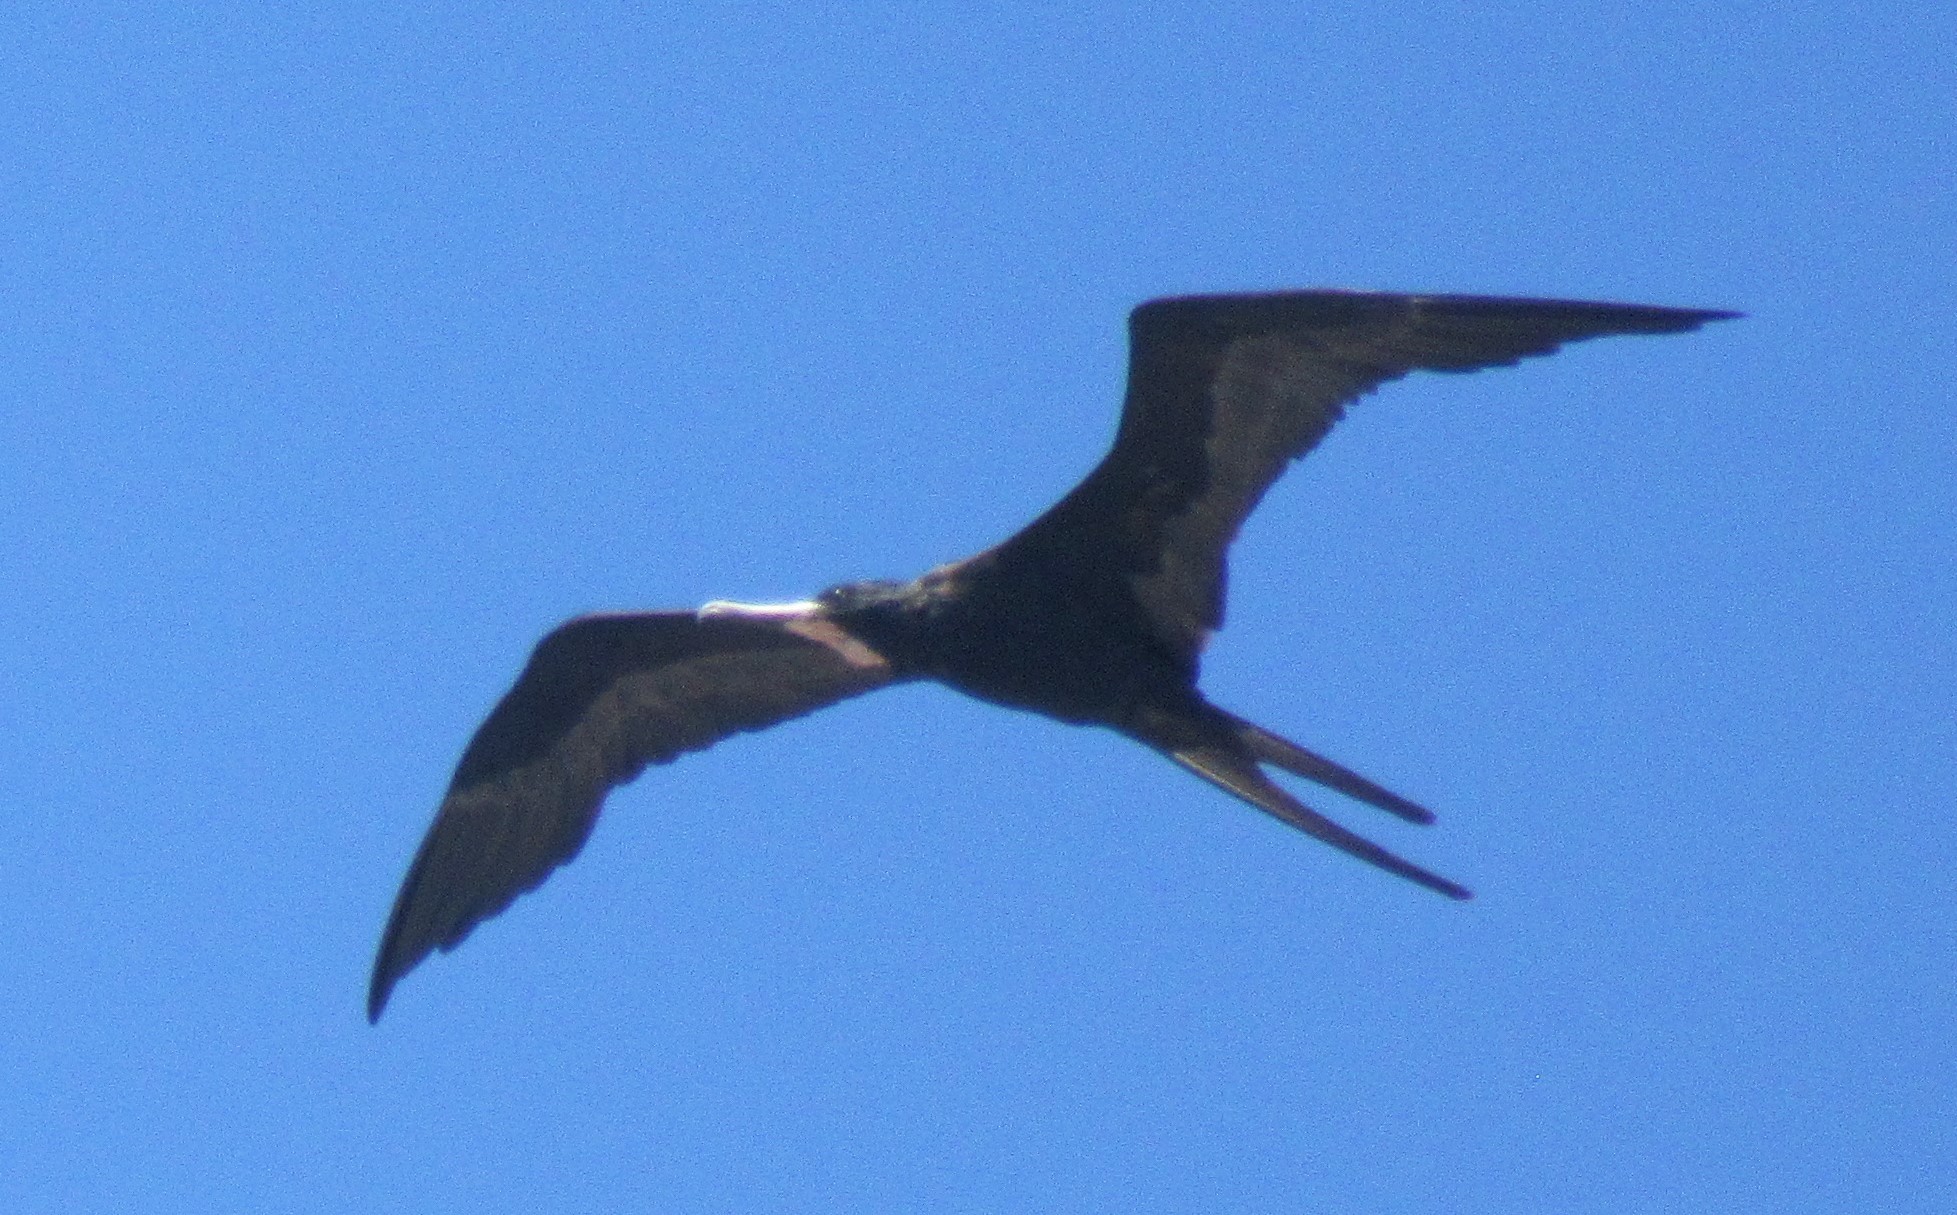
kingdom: Animalia
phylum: Chordata
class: Aves
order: Suliformes
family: Fregatidae
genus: Fregata
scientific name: Fregata magnificens
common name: Magnificent frigatebird
